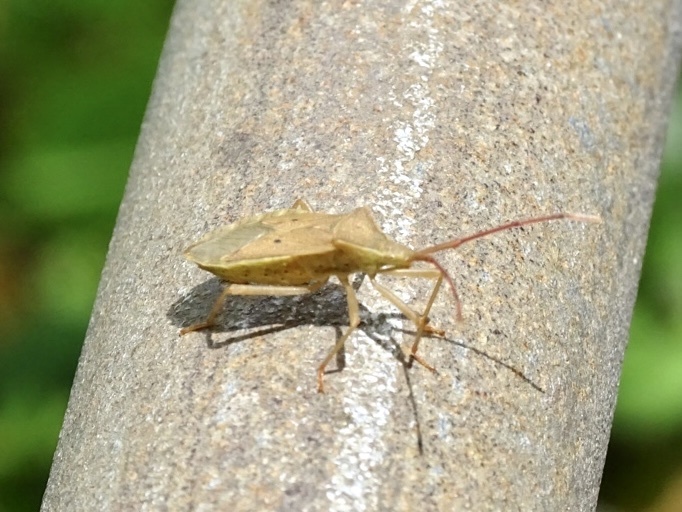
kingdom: Animalia
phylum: Arthropoda
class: Insecta
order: Hemiptera
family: Coreidae
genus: Homoeocerus
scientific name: Homoeocerus unipunctatus
